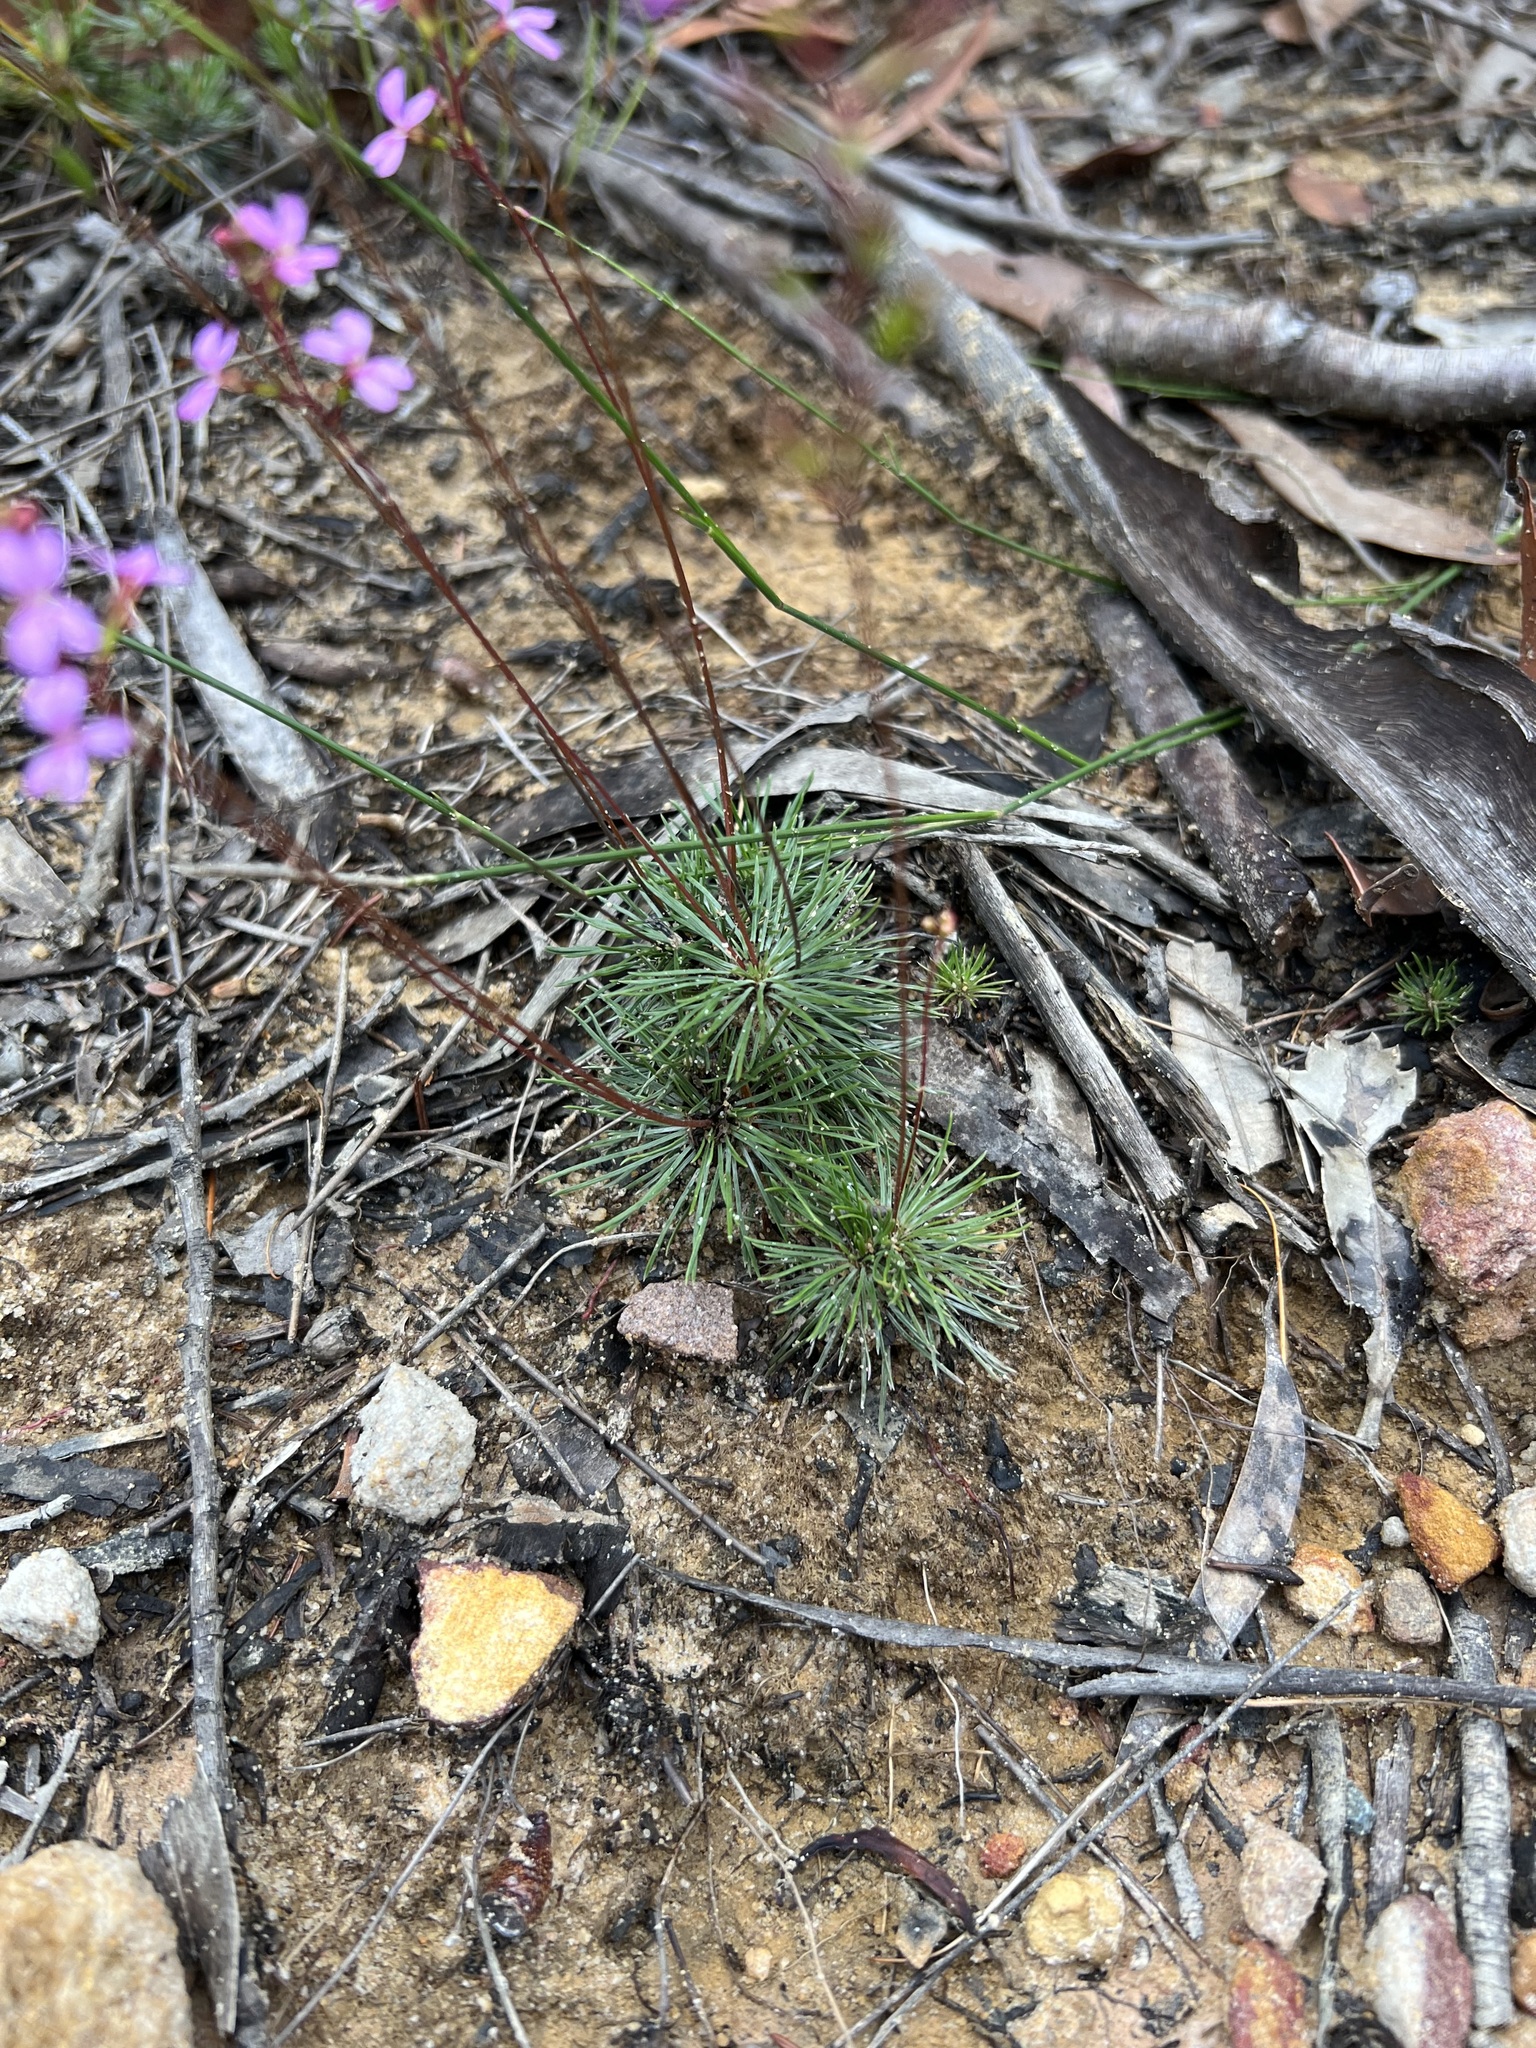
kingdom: Plantae
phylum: Tracheophyta
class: Magnoliopsida
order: Asterales
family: Stylidiaceae
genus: Stylidium
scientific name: Stylidium lineare
